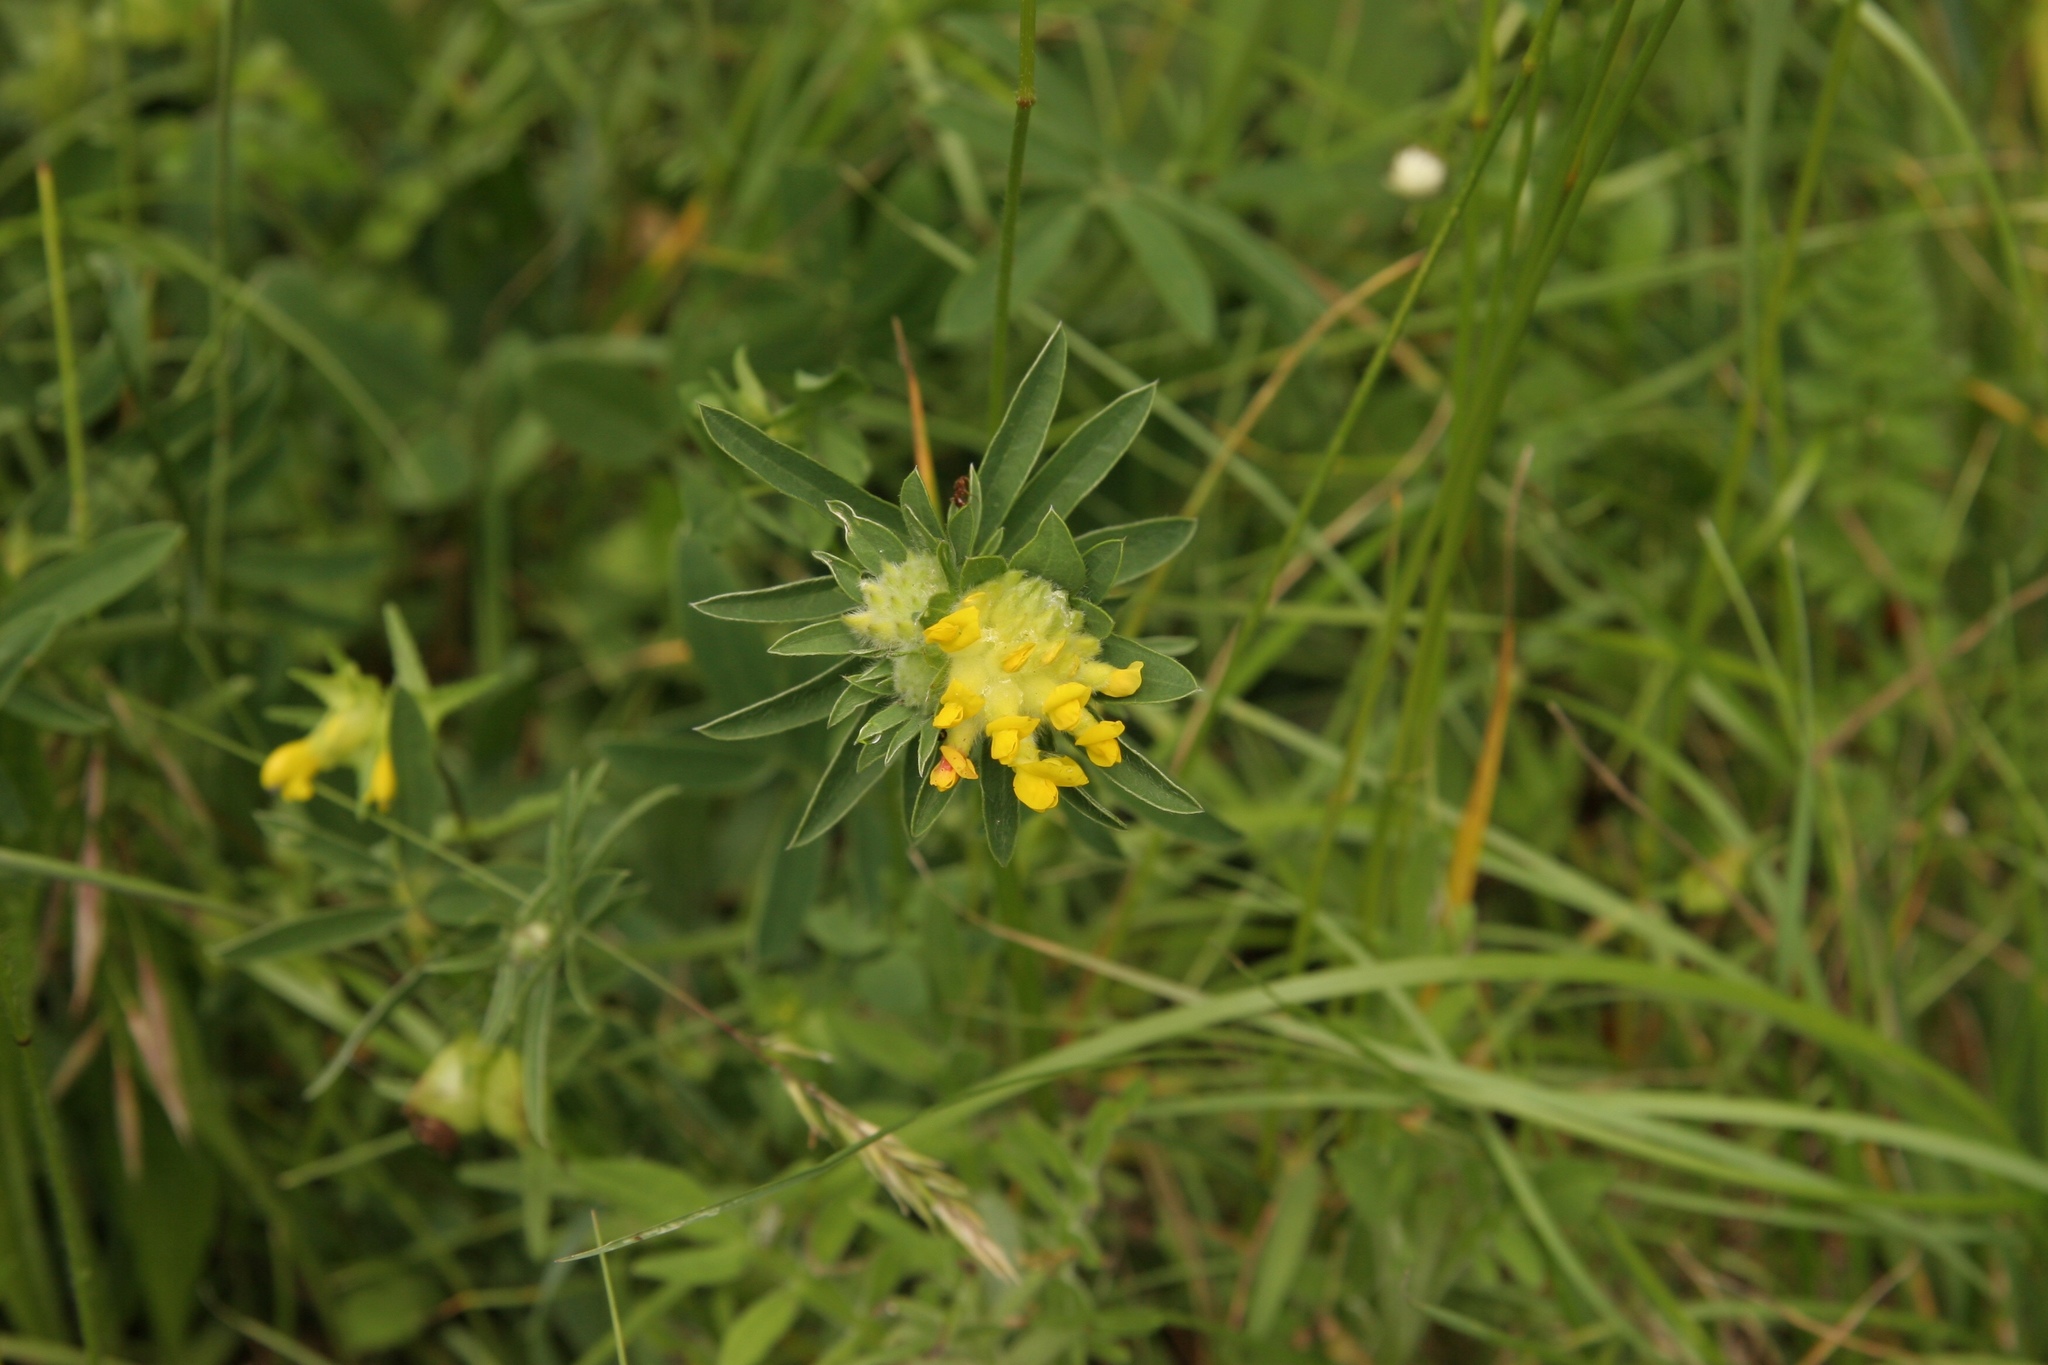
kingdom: Plantae
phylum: Tracheophyta
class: Magnoliopsida
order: Fabales
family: Fabaceae
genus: Anthyllis
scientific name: Anthyllis vulneraria
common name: Kidney vetch
